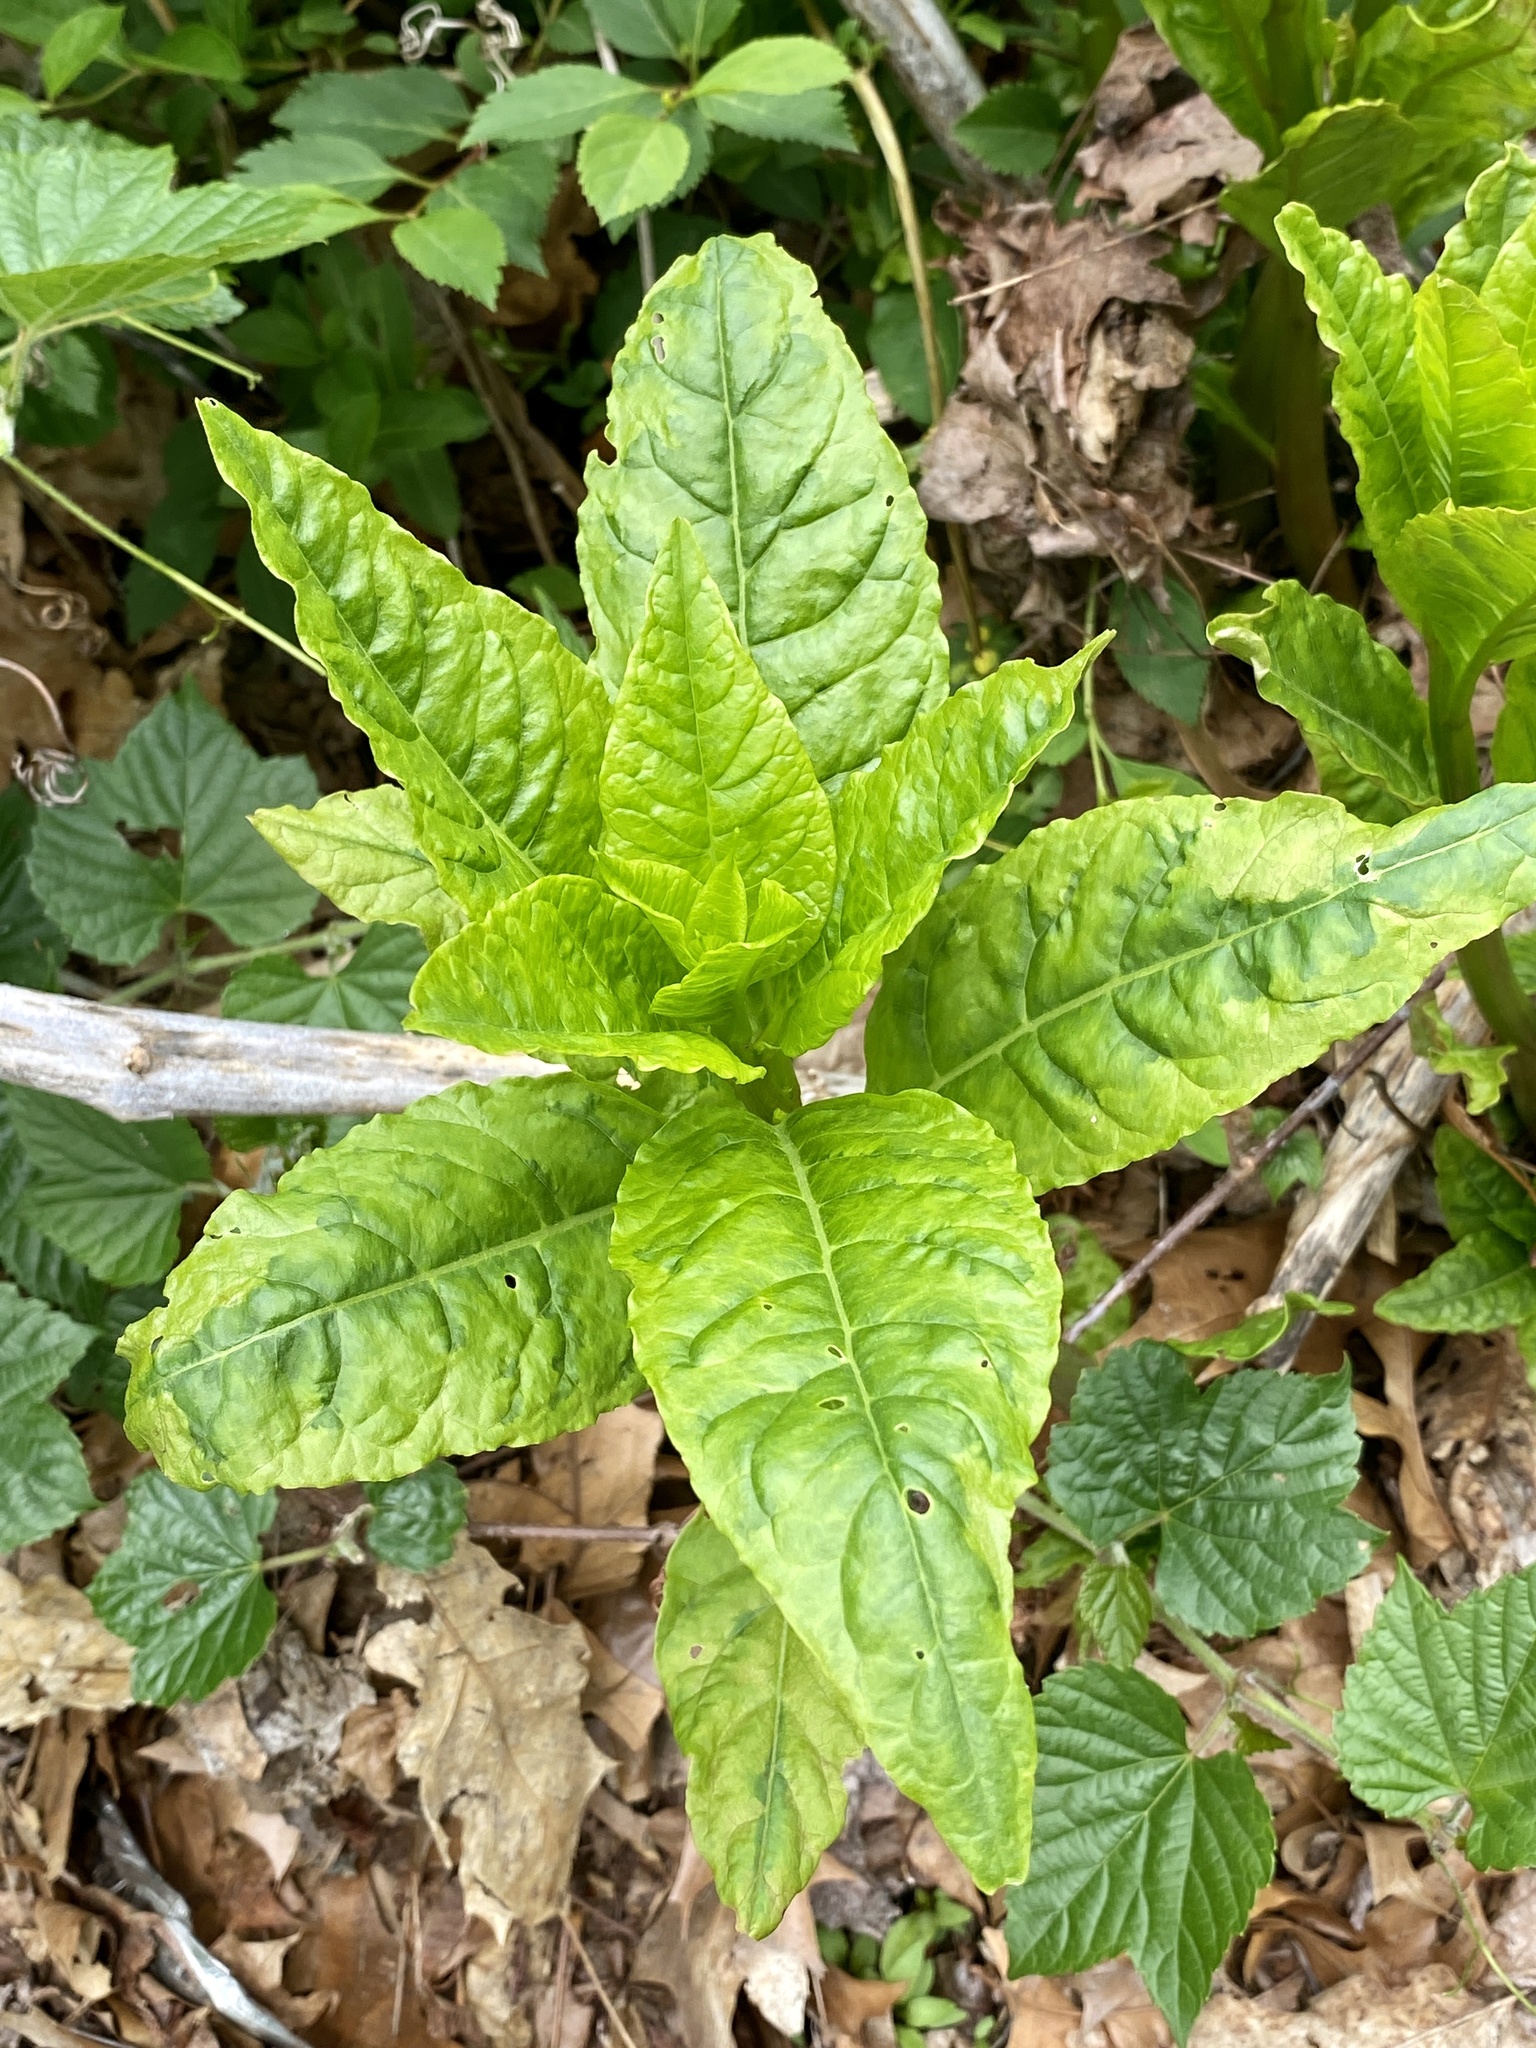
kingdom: Viruses
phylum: Pisuviricota
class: Stelpaviricetes
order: Patatavirales
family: Potyviridae
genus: Potyvirus
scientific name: Potyvirus Pokeweed mosaic virus
